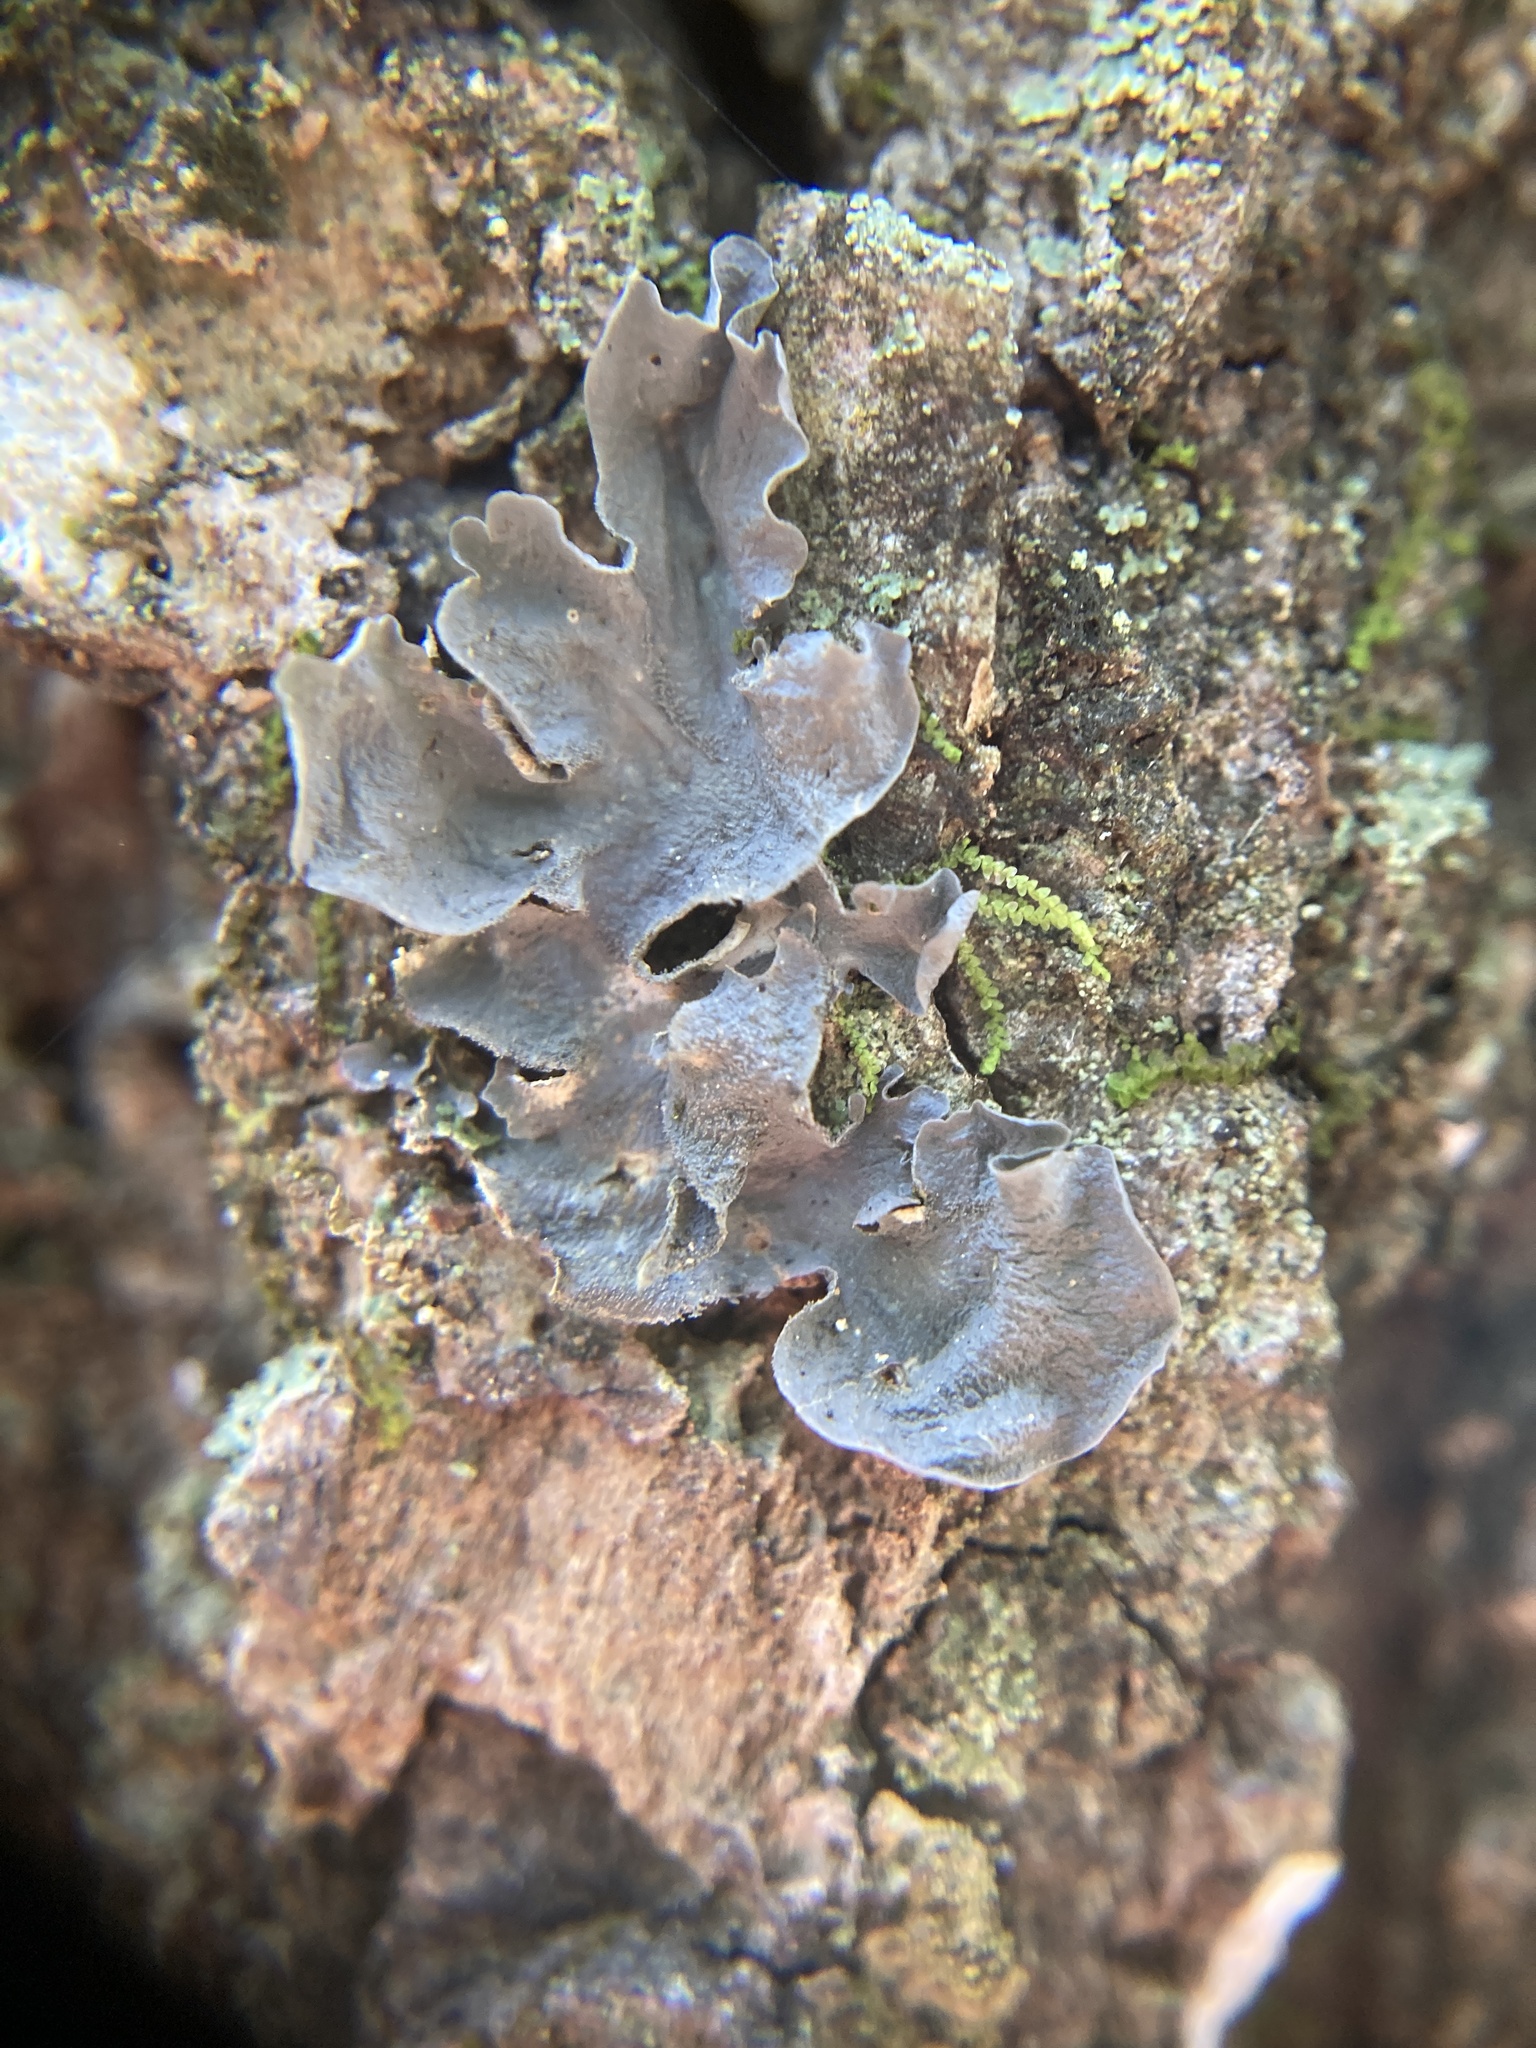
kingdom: Fungi
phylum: Ascomycota
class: Lecanoromycetes
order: Peltigerales
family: Collemataceae
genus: Leptogium
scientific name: Leptogium cyanescens
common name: Blue jellyskin
